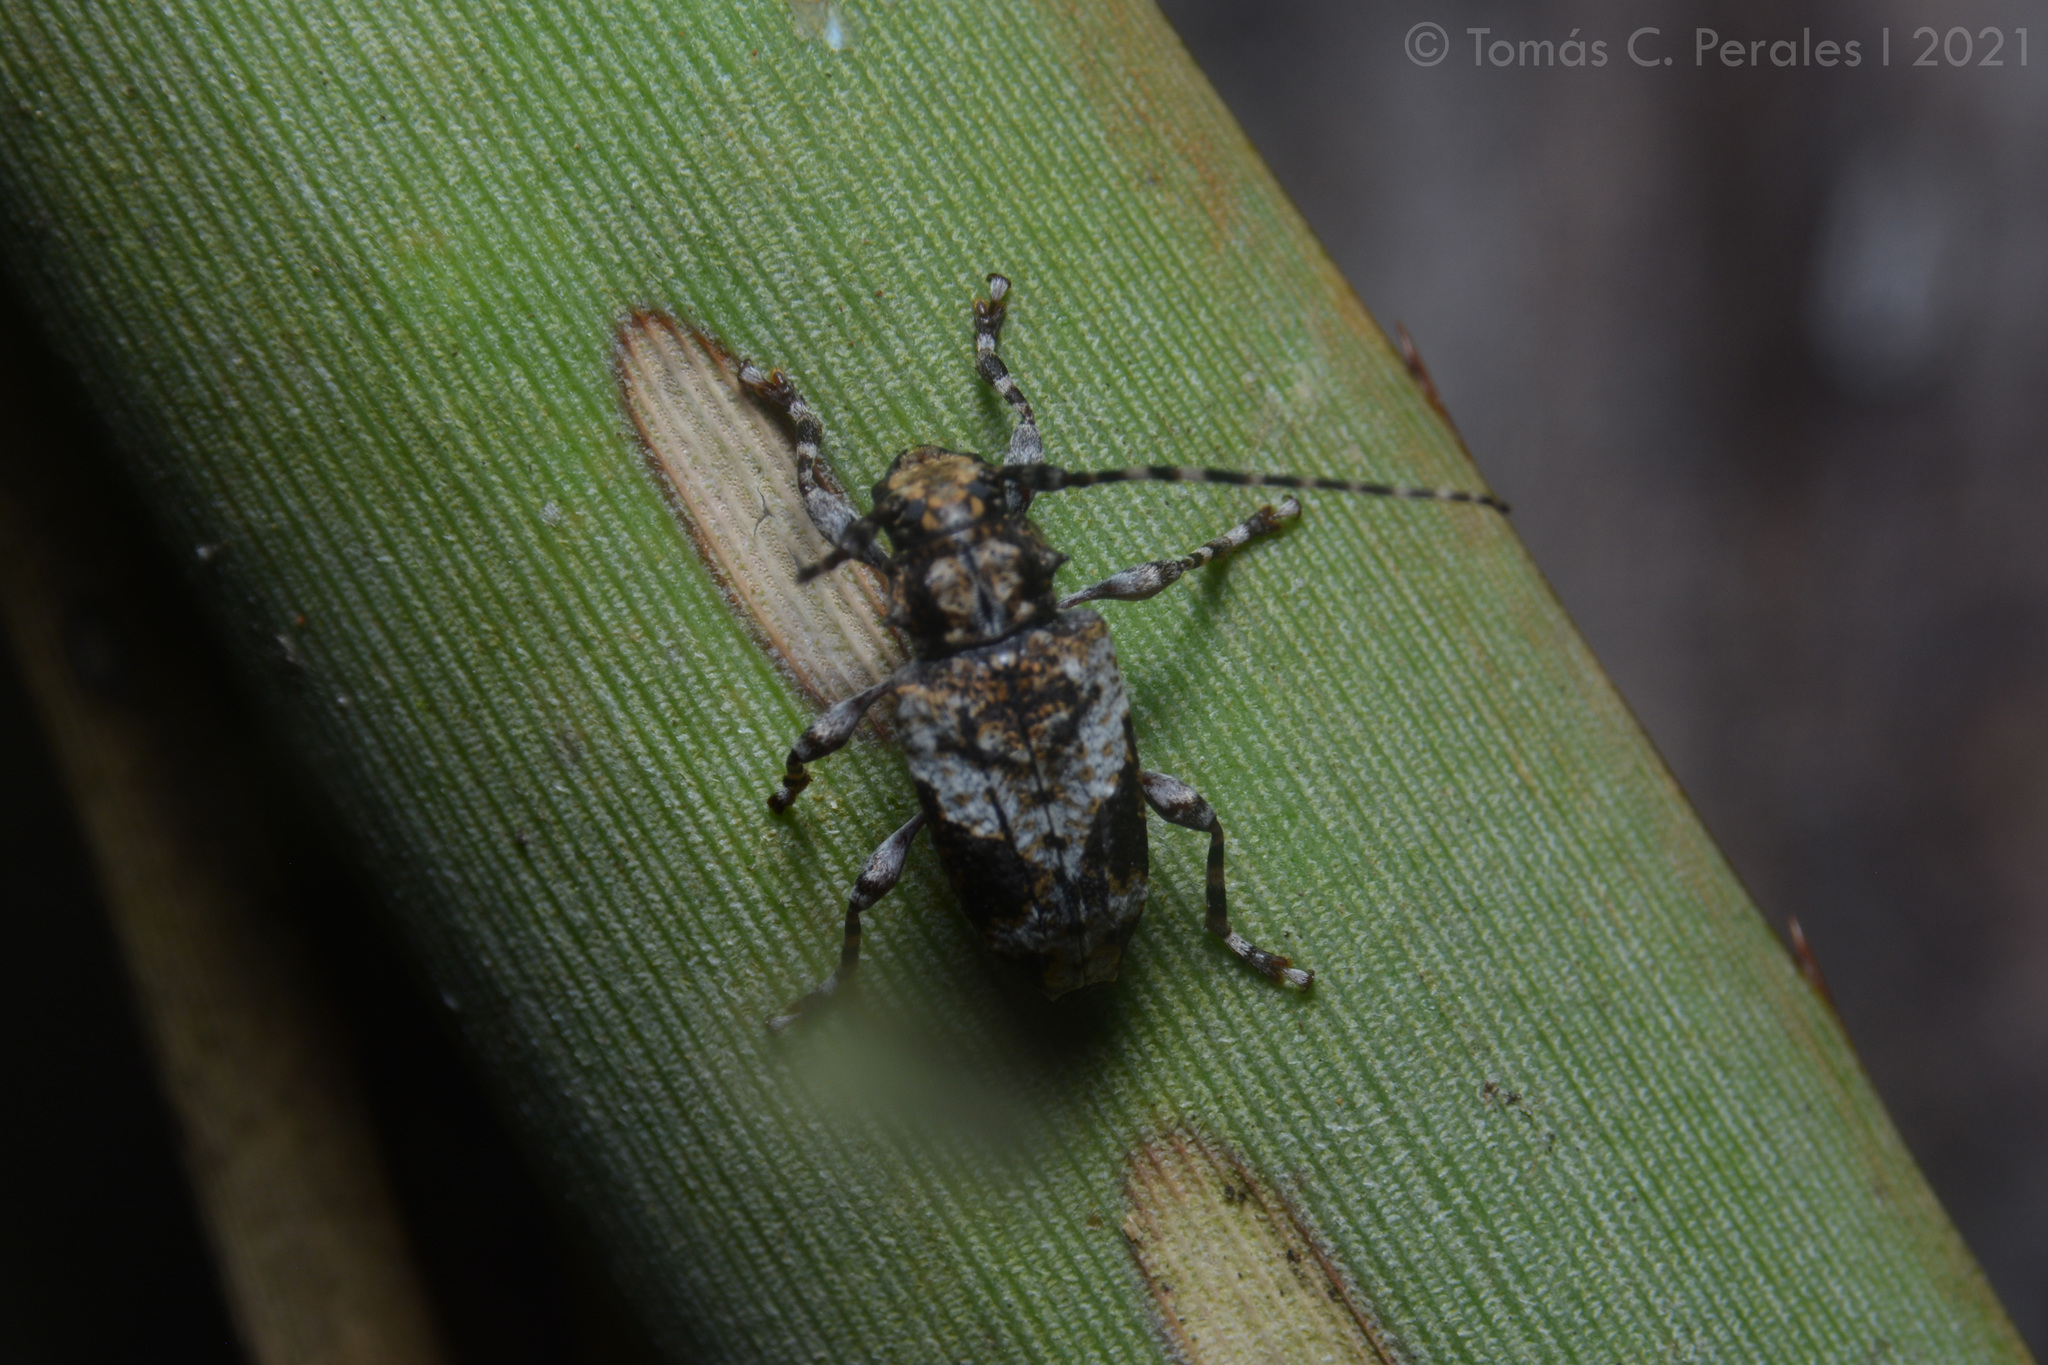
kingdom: Animalia
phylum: Arthropoda
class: Insecta
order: Coleoptera
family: Cerambycidae
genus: Psapharochrus
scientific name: Psapharochrus jaspideus
